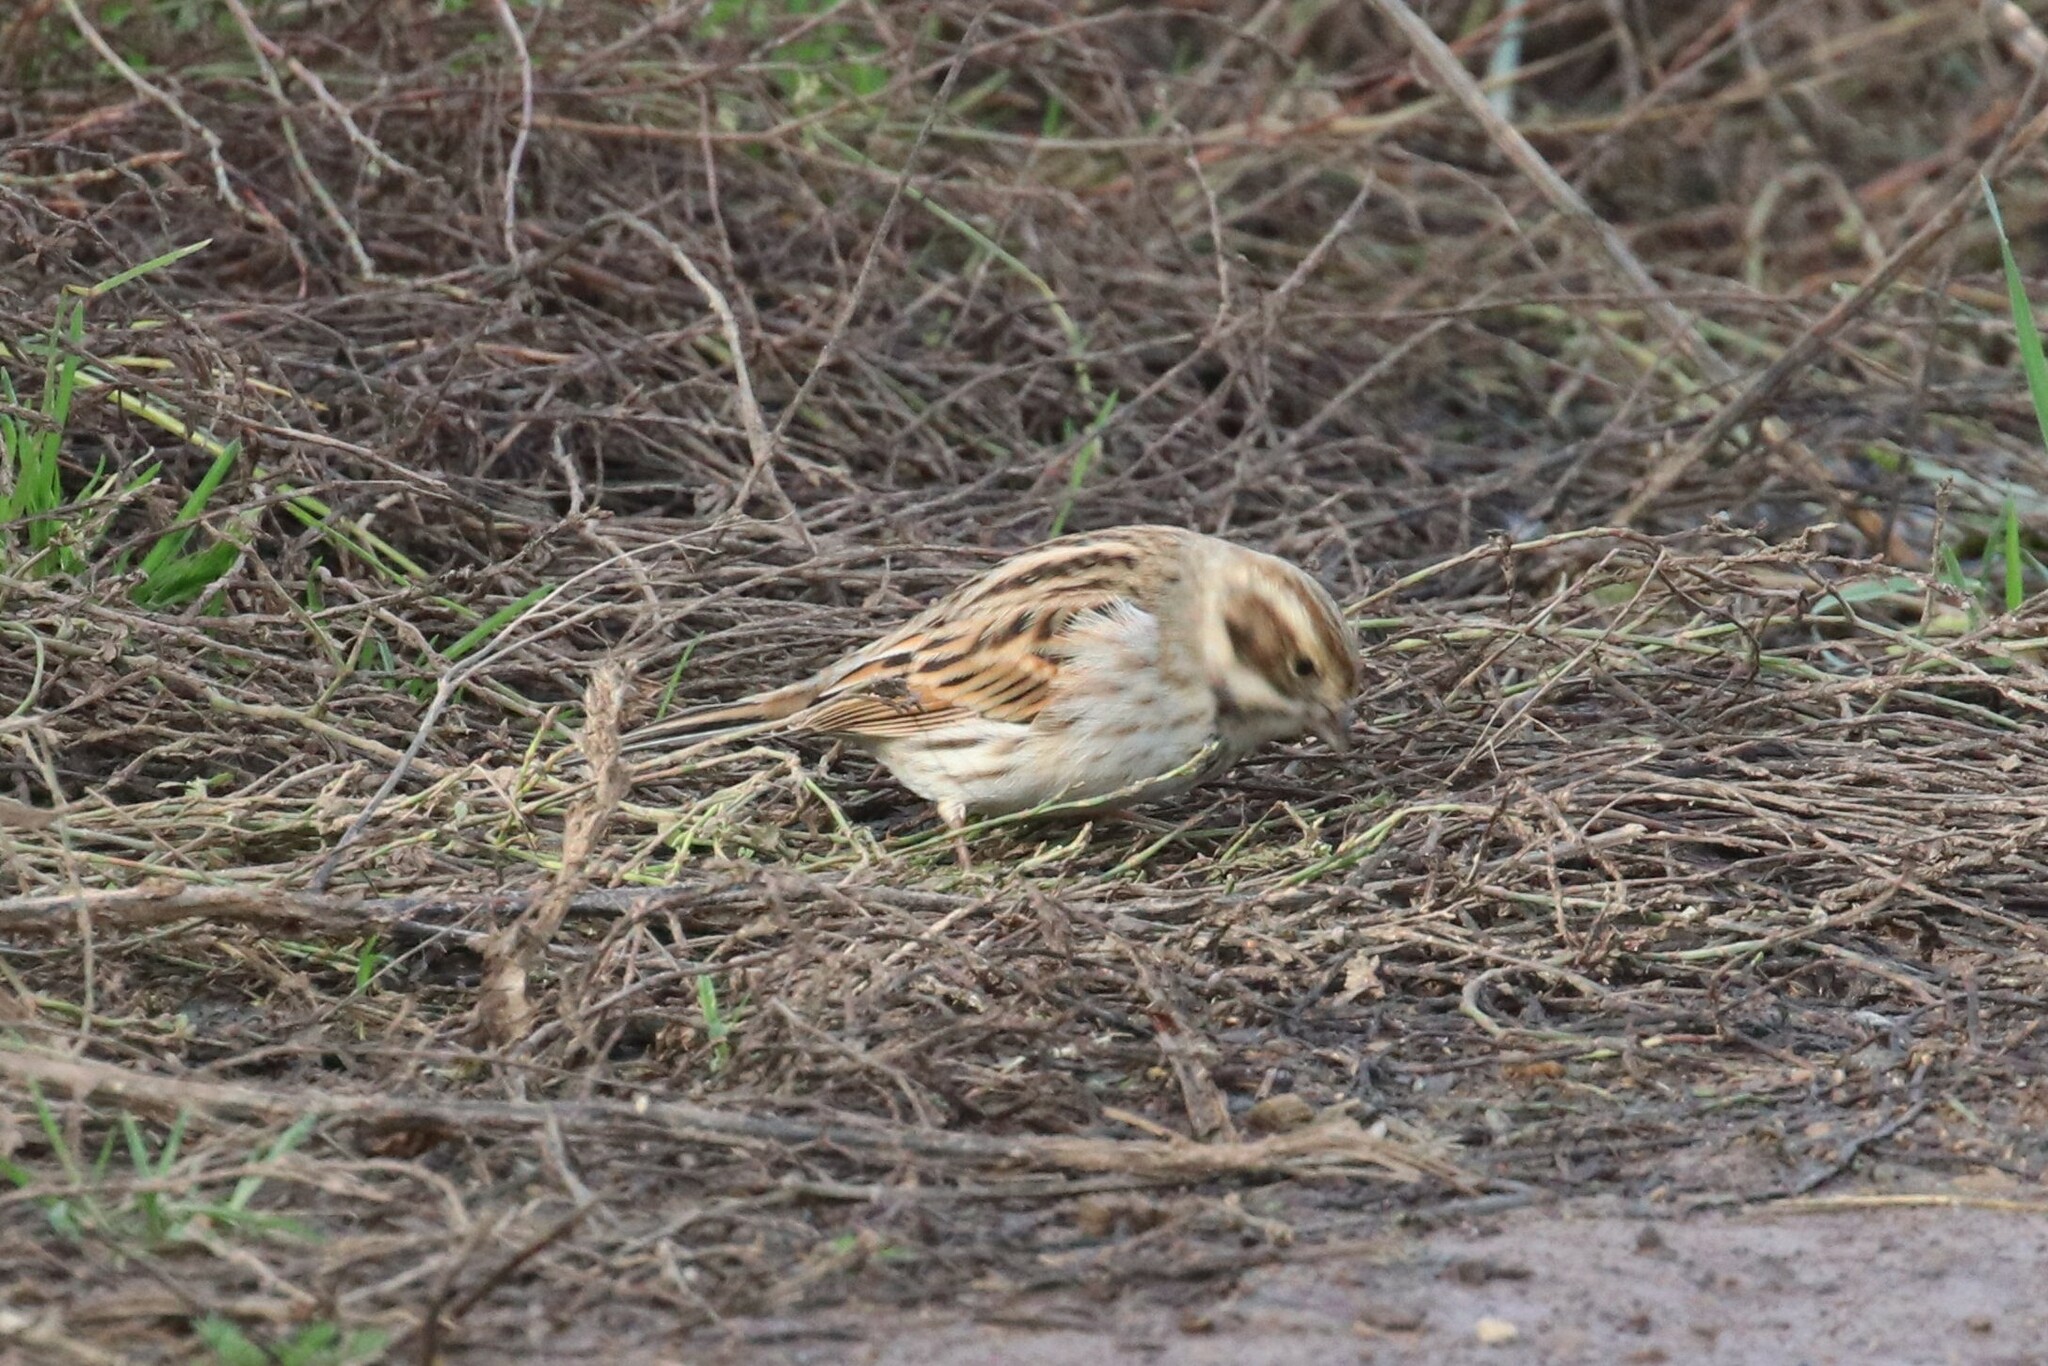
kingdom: Animalia
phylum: Chordata
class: Aves
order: Passeriformes
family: Emberizidae
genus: Emberiza
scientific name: Emberiza schoeniclus
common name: Reed bunting
